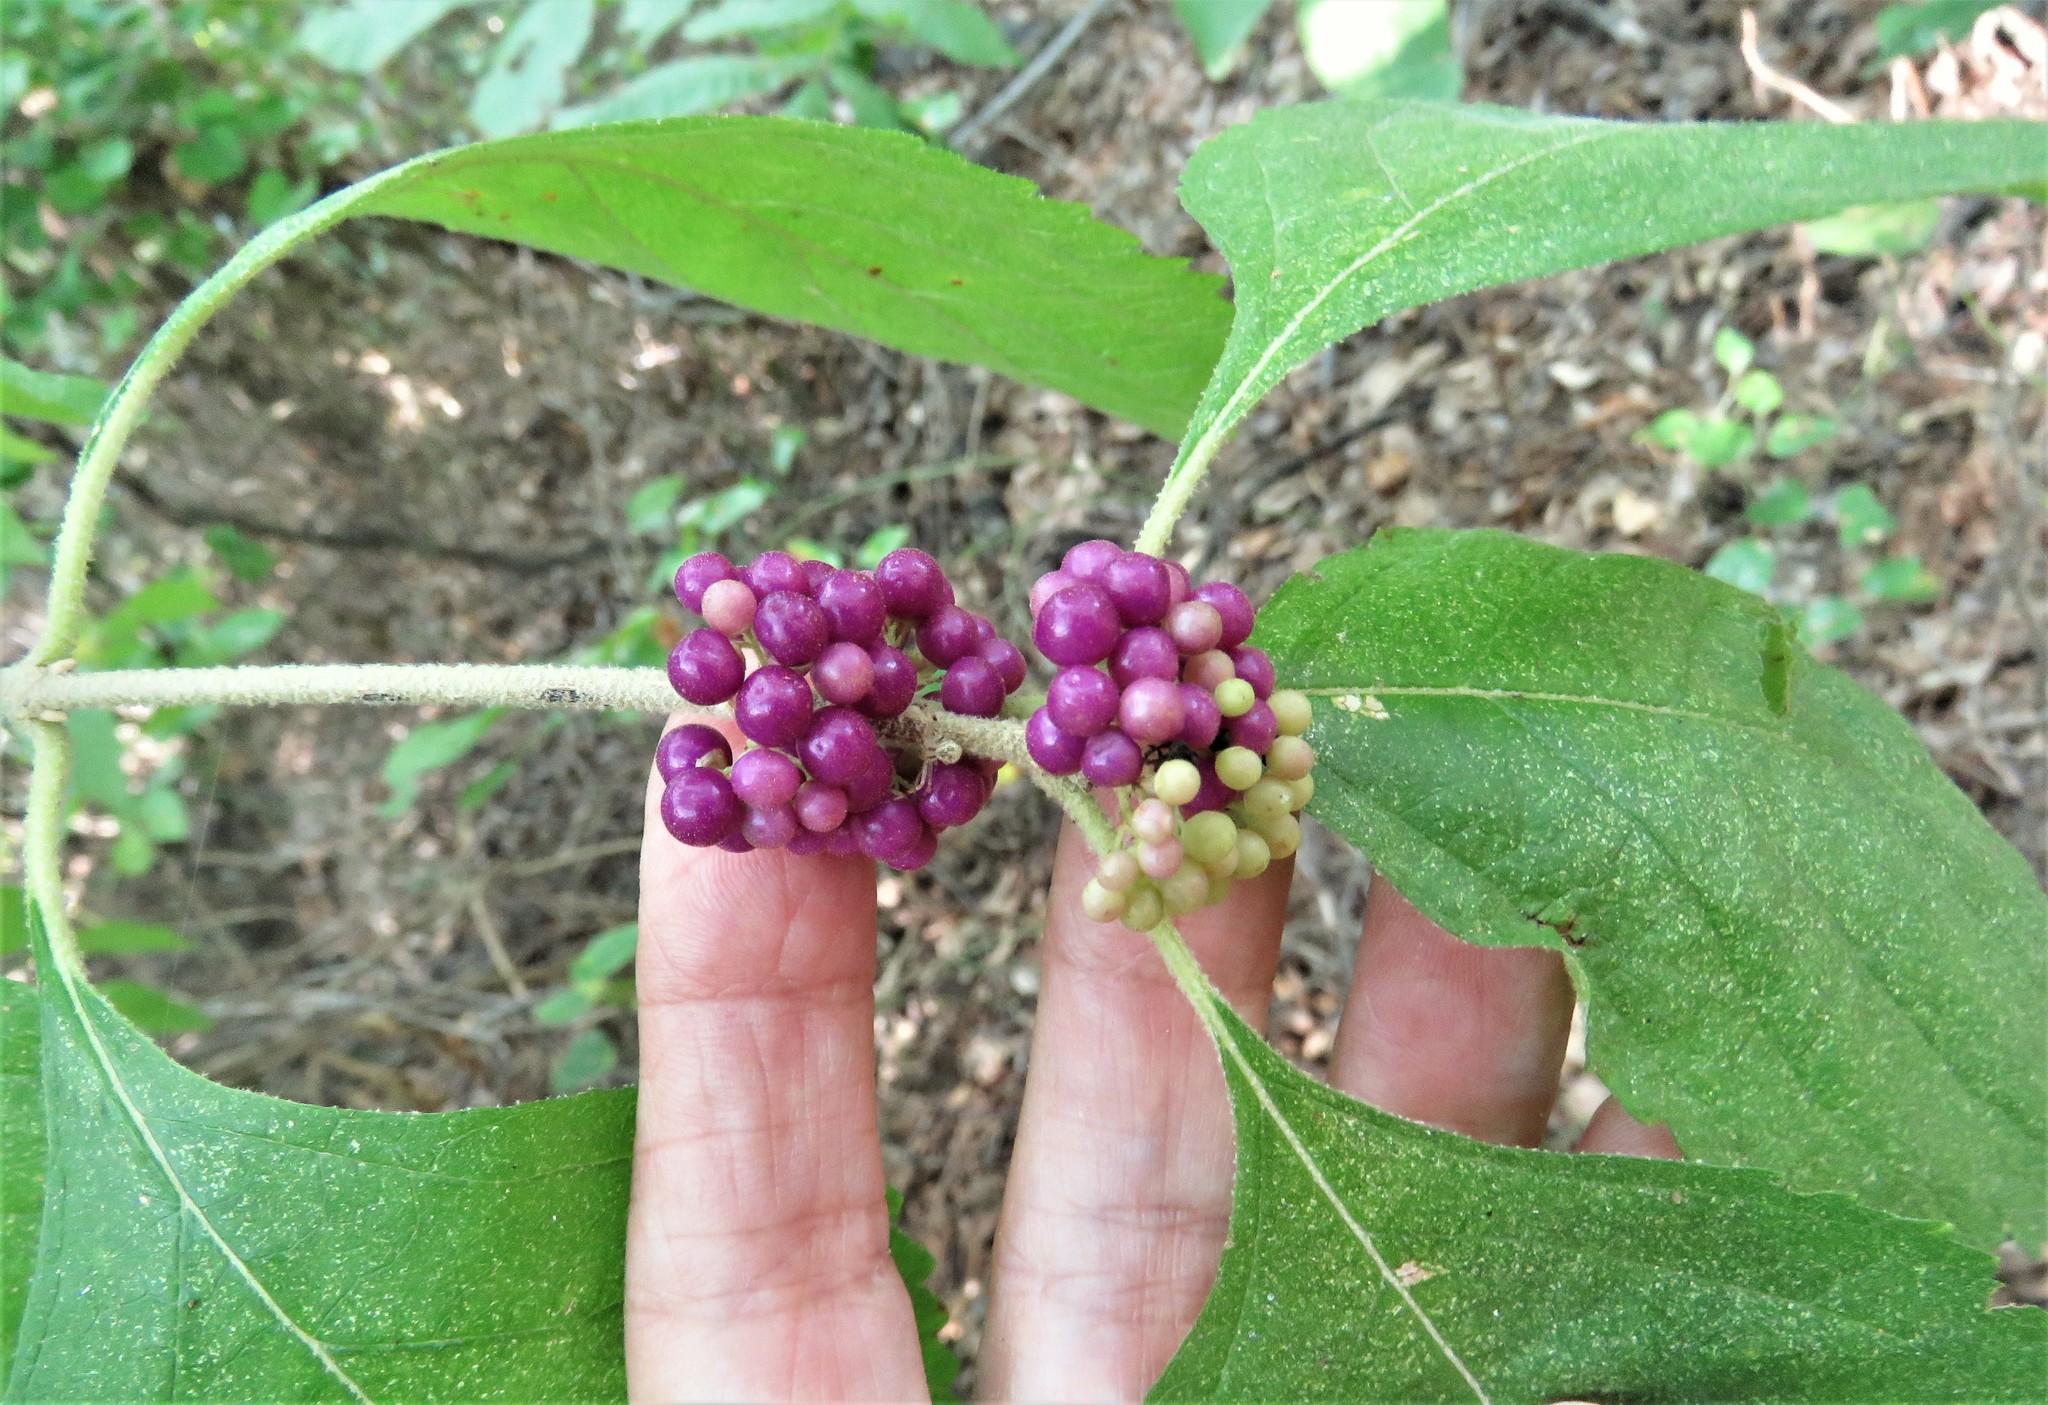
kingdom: Plantae
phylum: Tracheophyta
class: Magnoliopsida
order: Lamiales
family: Lamiaceae
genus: Callicarpa
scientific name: Callicarpa americana
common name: American beautyberry
